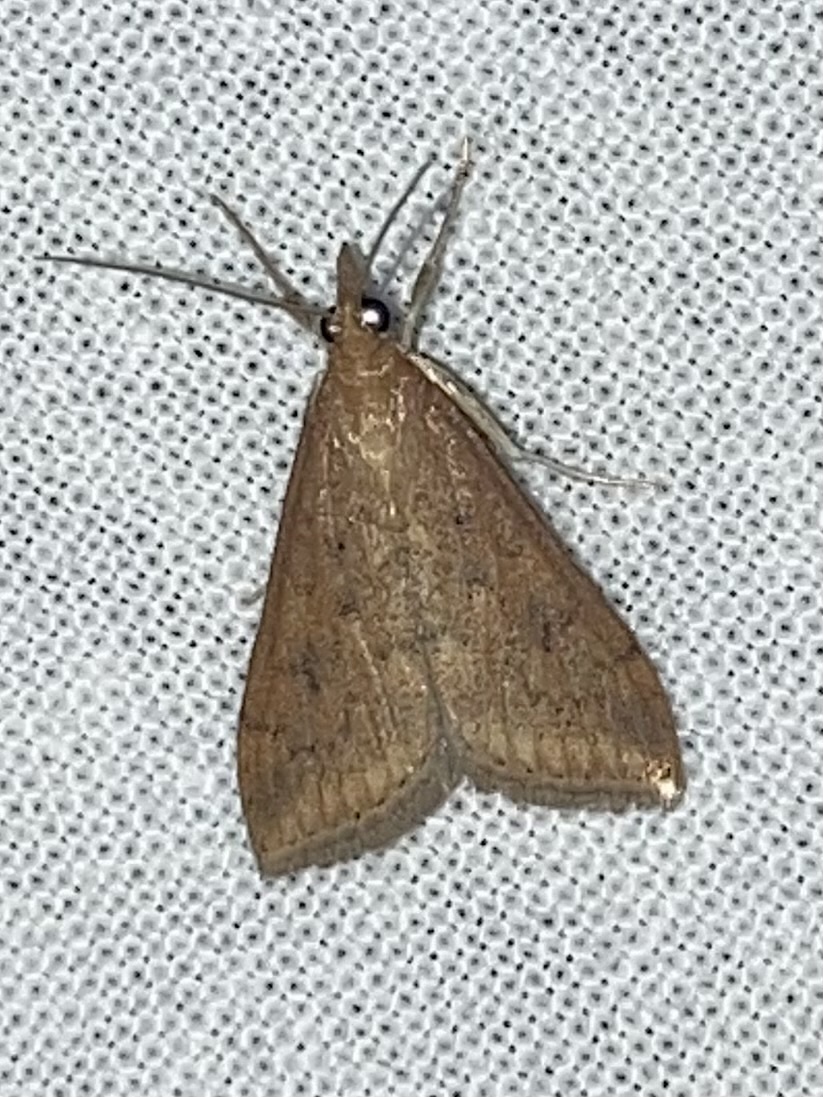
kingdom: Animalia
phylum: Arthropoda
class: Insecta
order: Lepidoptera
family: Crambidae
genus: Udea
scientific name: Udea ferrugalis
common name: Rusty dot
